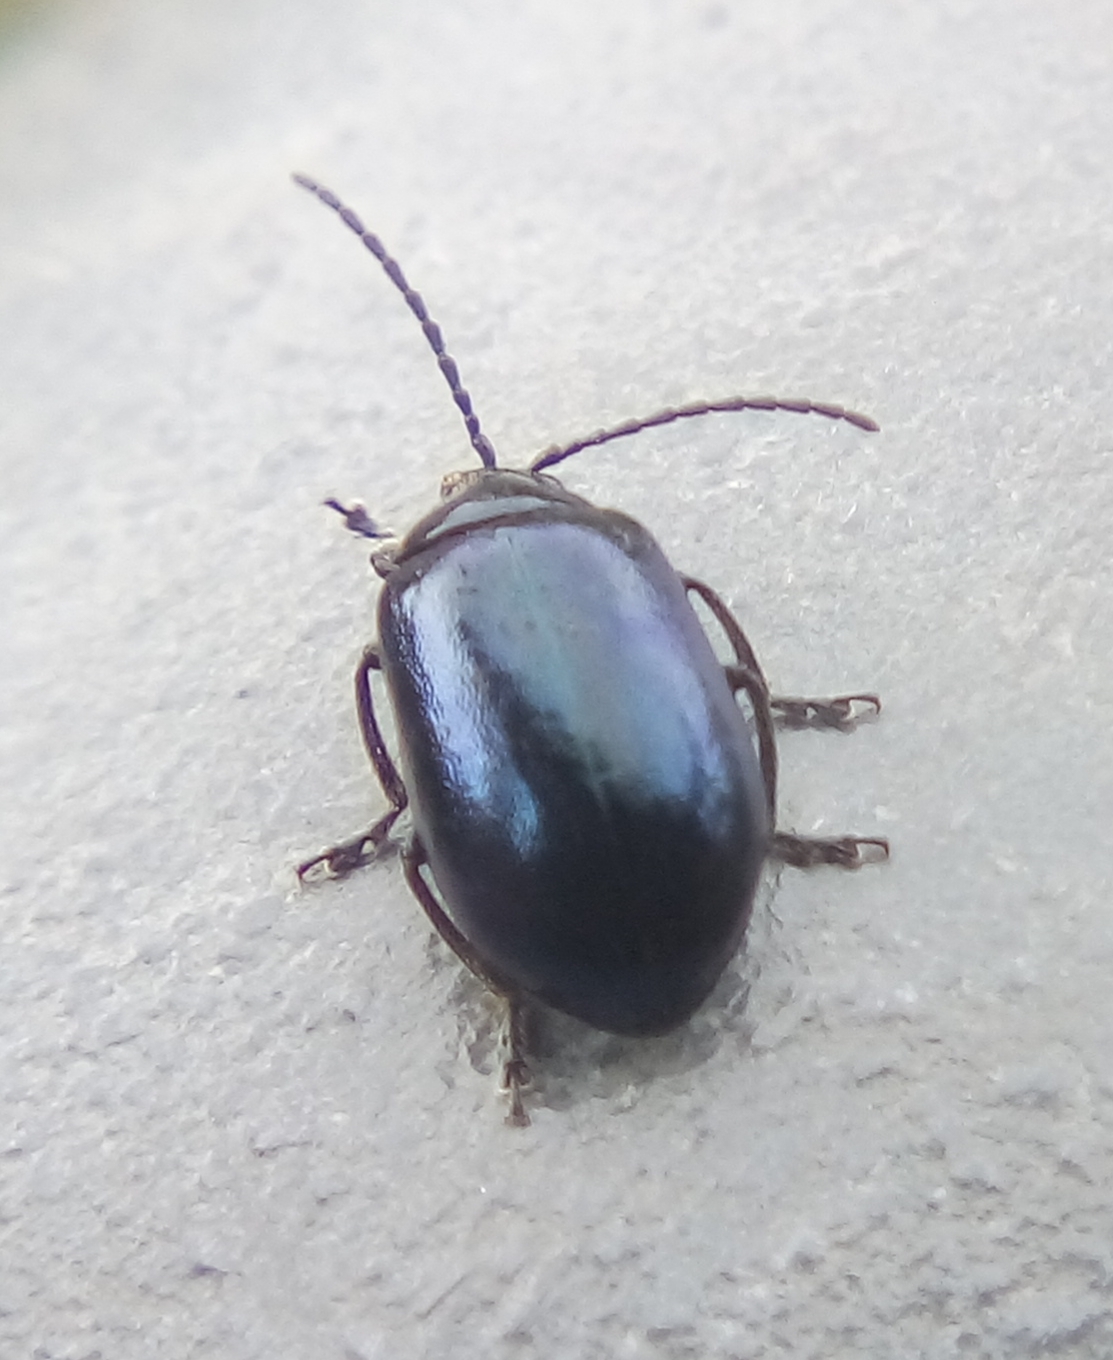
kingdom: Animalia
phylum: Arthropoda
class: Insecta
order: Coleoptera
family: Chrysomelidae
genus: Agelastica
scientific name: Agelastica alni
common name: Alder leaf beetle
